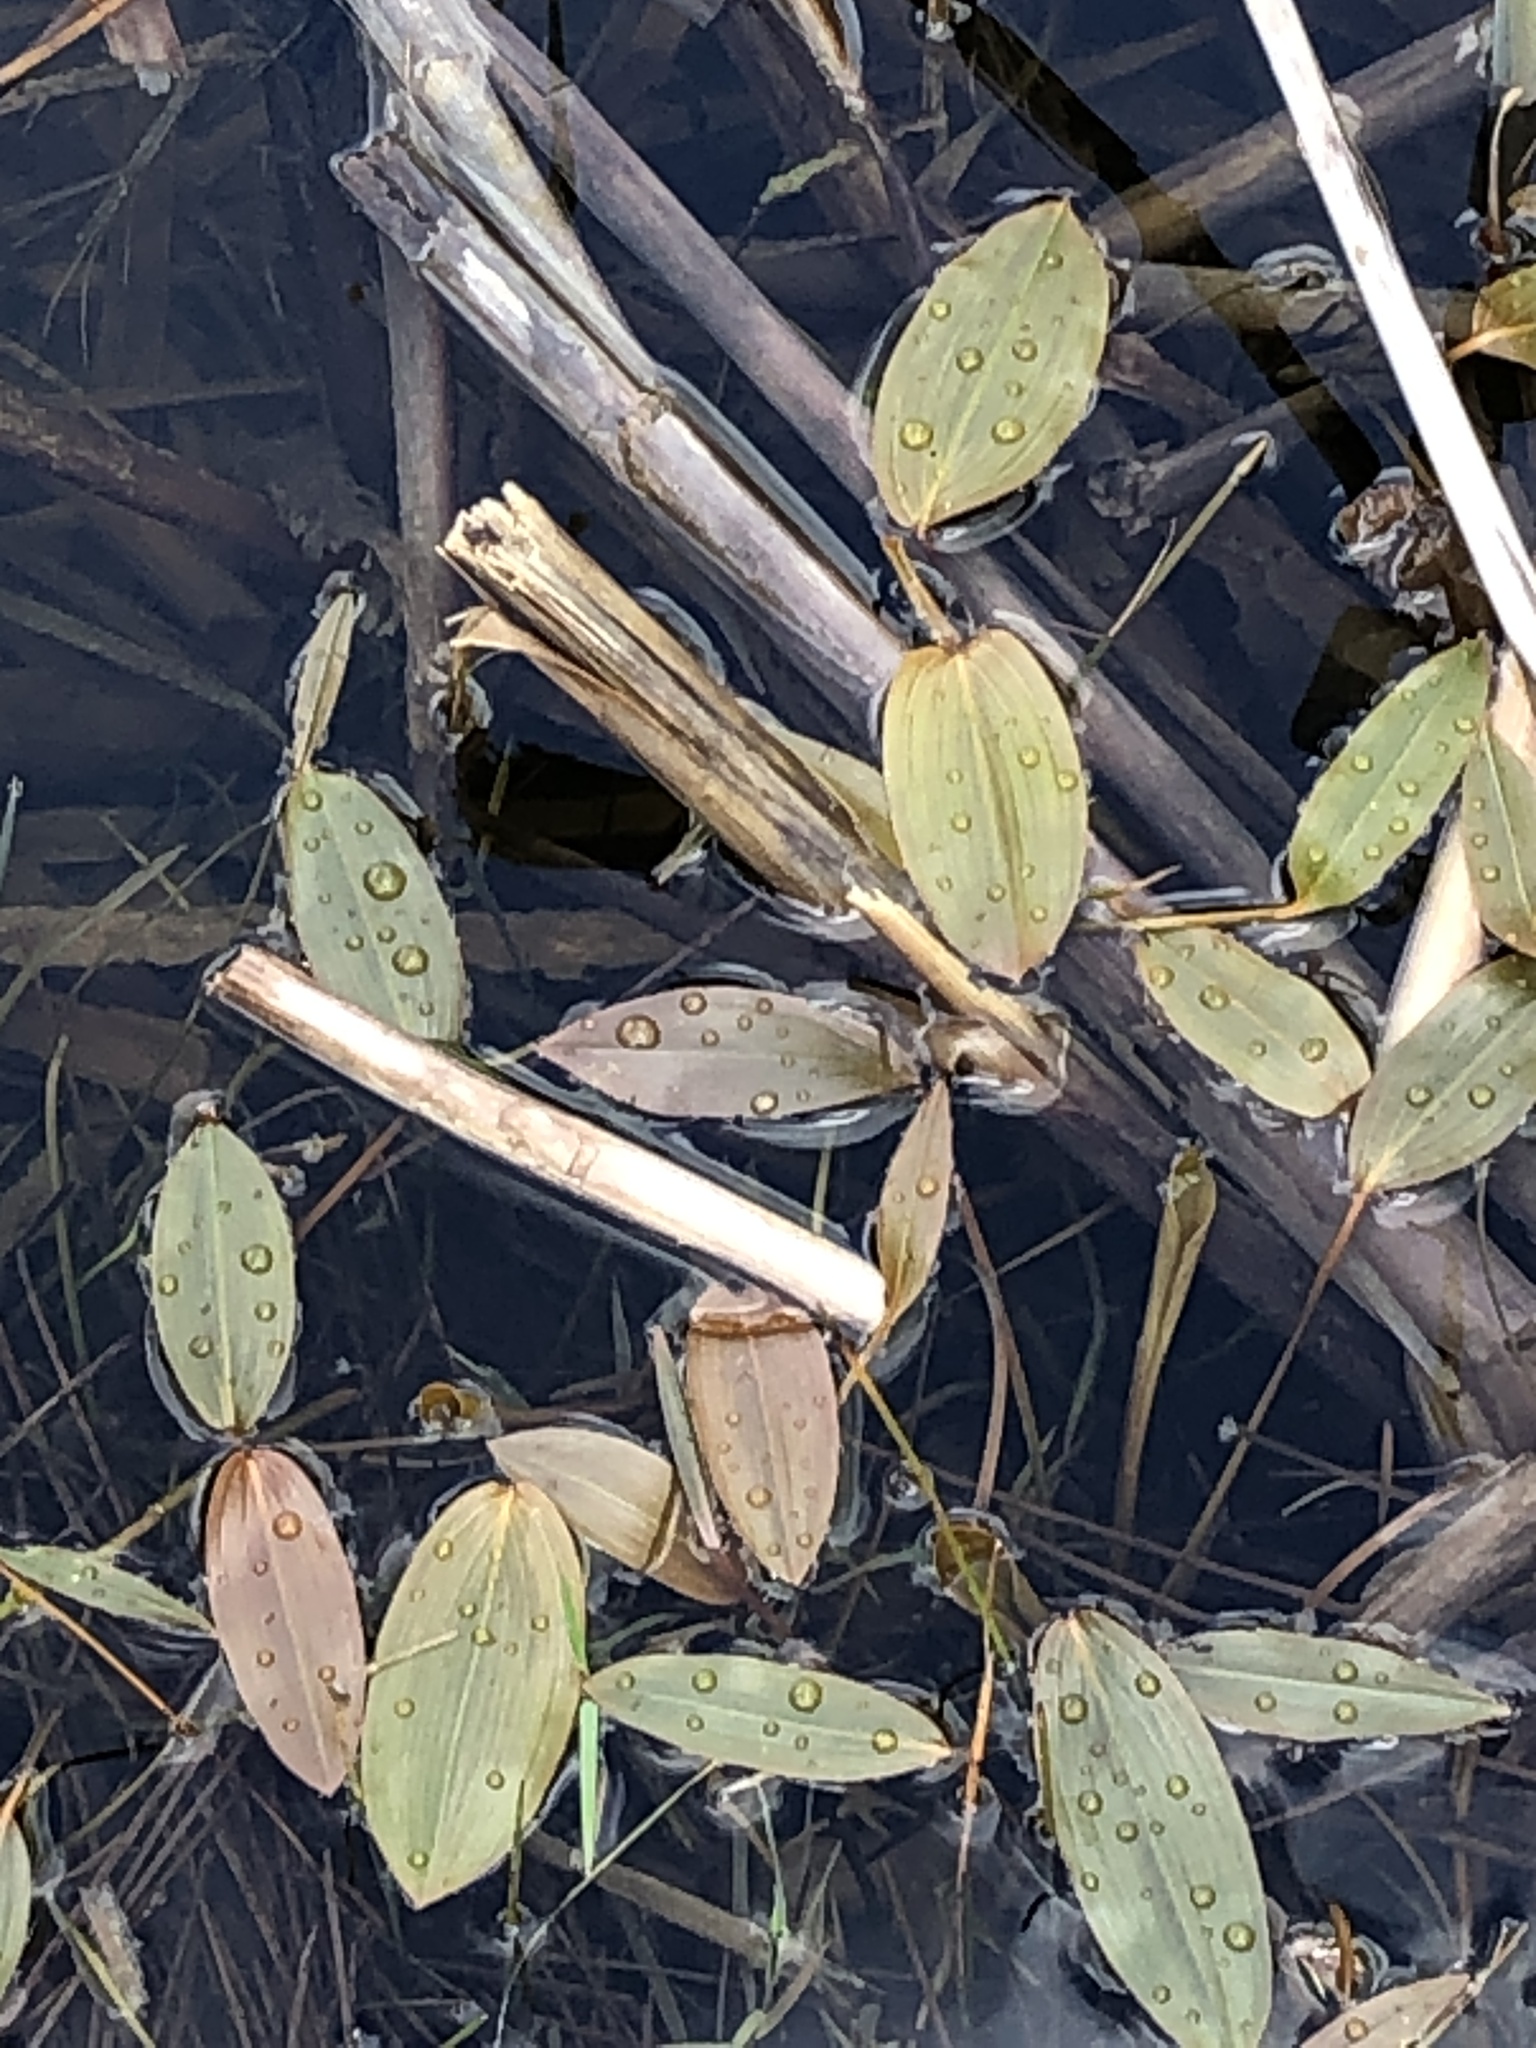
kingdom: Plantae
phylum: Tracheophyta
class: Liliopsida
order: Alismatales
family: Potamogetonaceae
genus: Potamogeton
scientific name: Potamogeton natans
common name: Broad-leaved pondweed
